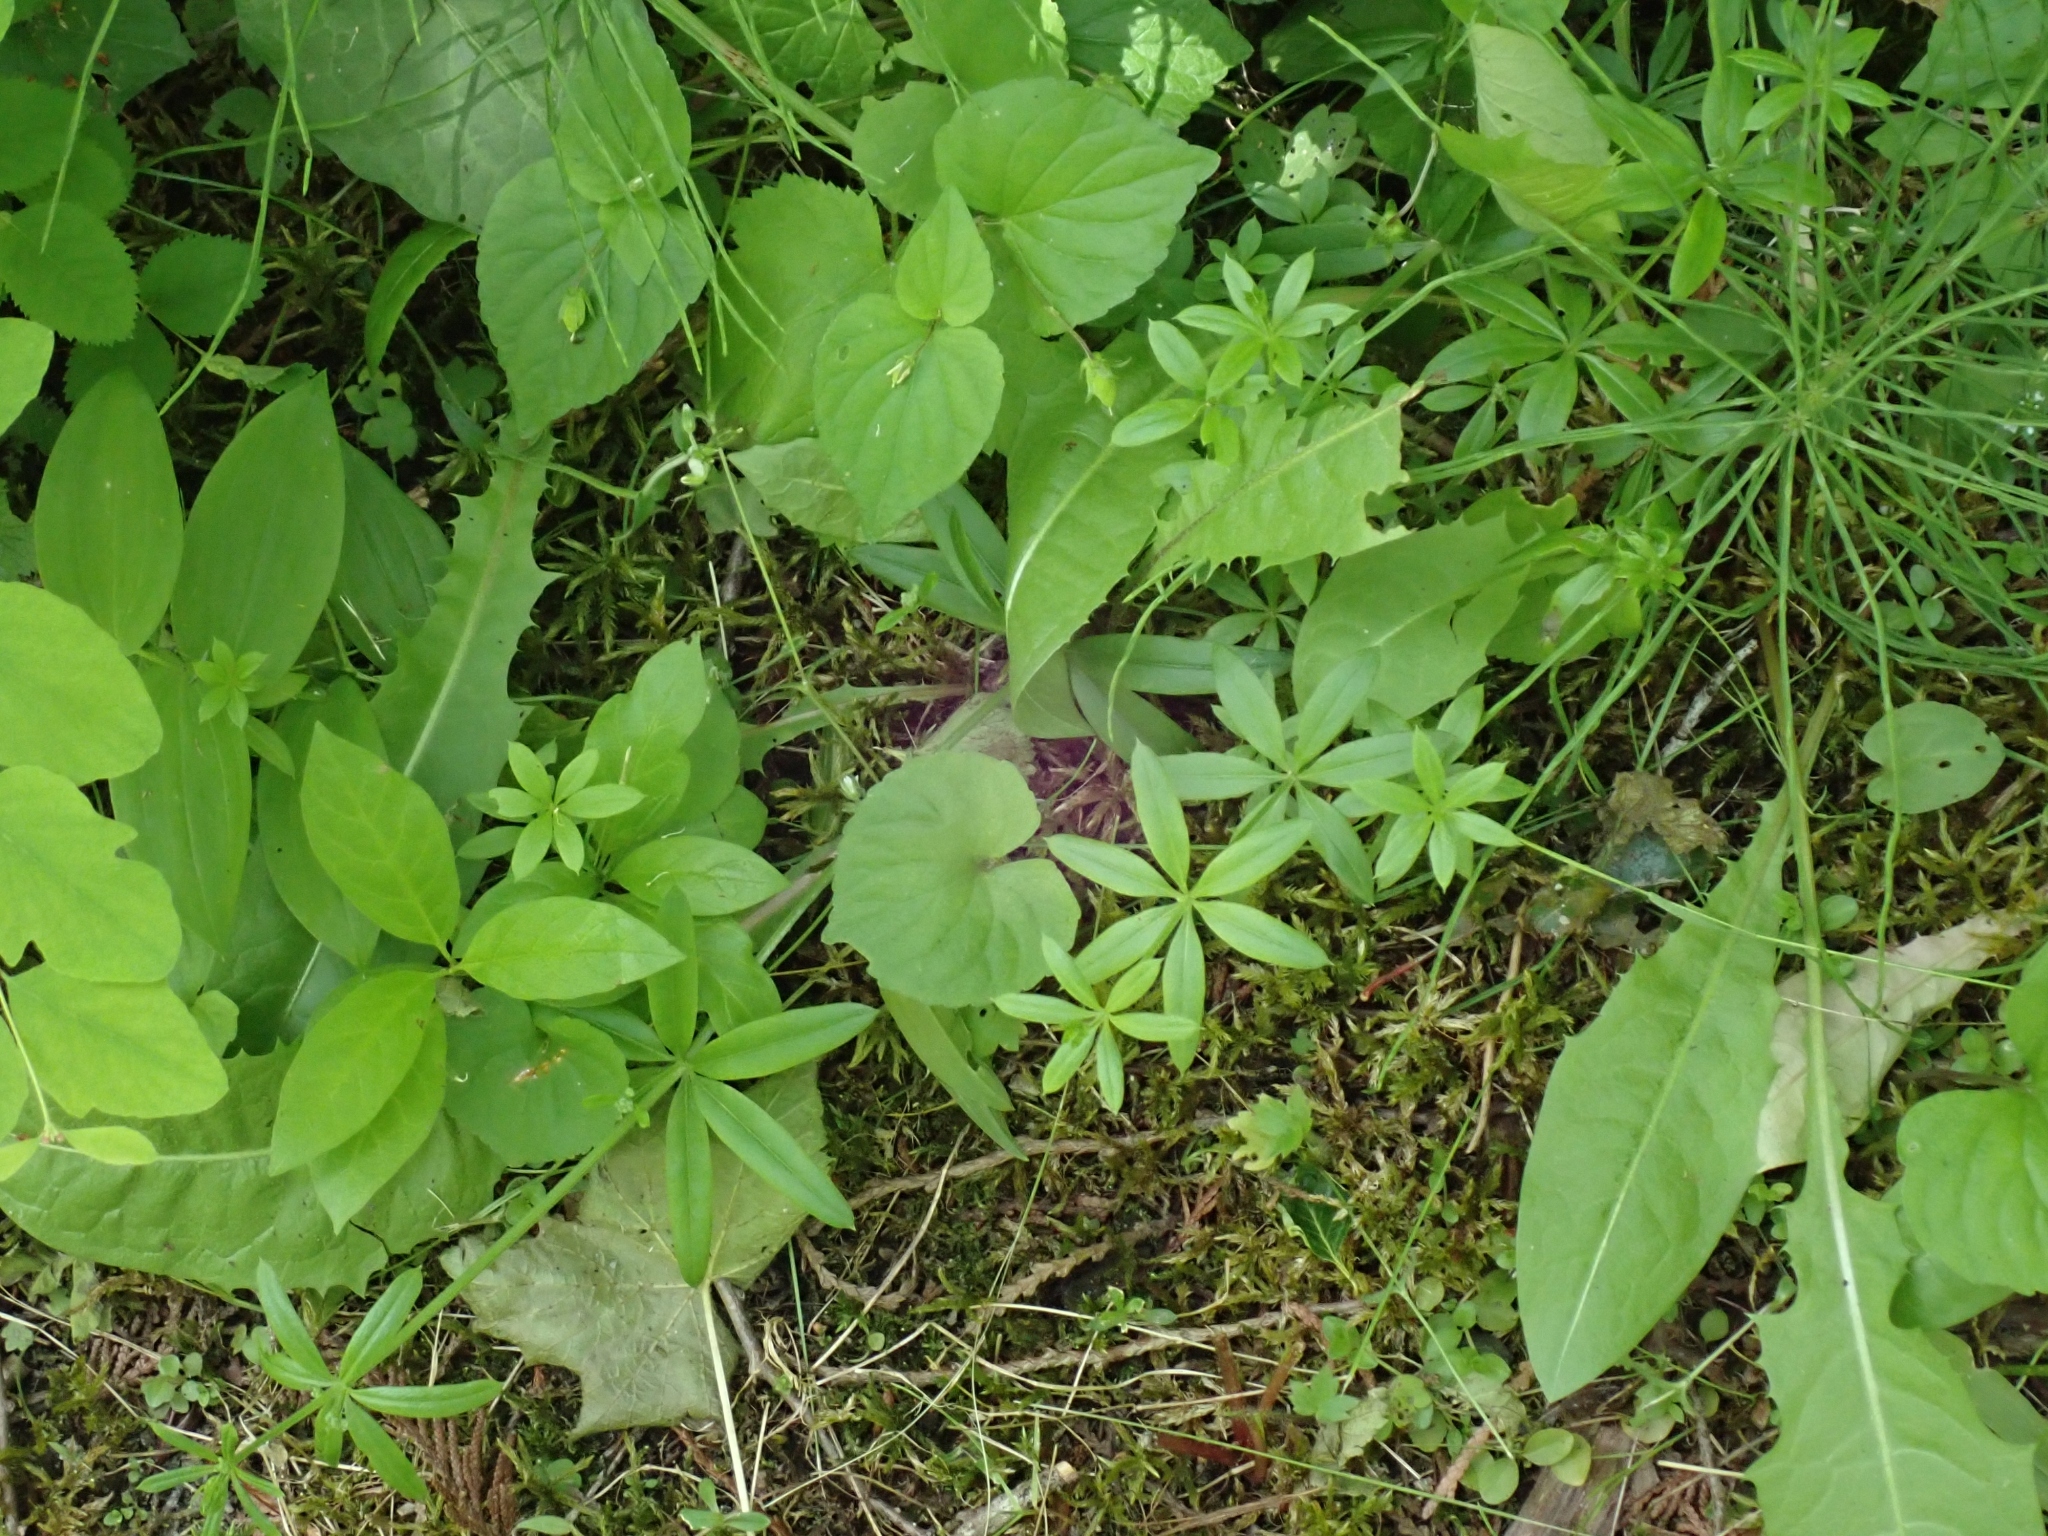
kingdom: Plantae
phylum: Tracheophyta
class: Magnoliopsida
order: Gentianales
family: Rubiaceae
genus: Galium
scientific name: Galium triflorum
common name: Fragrant bedstraw
